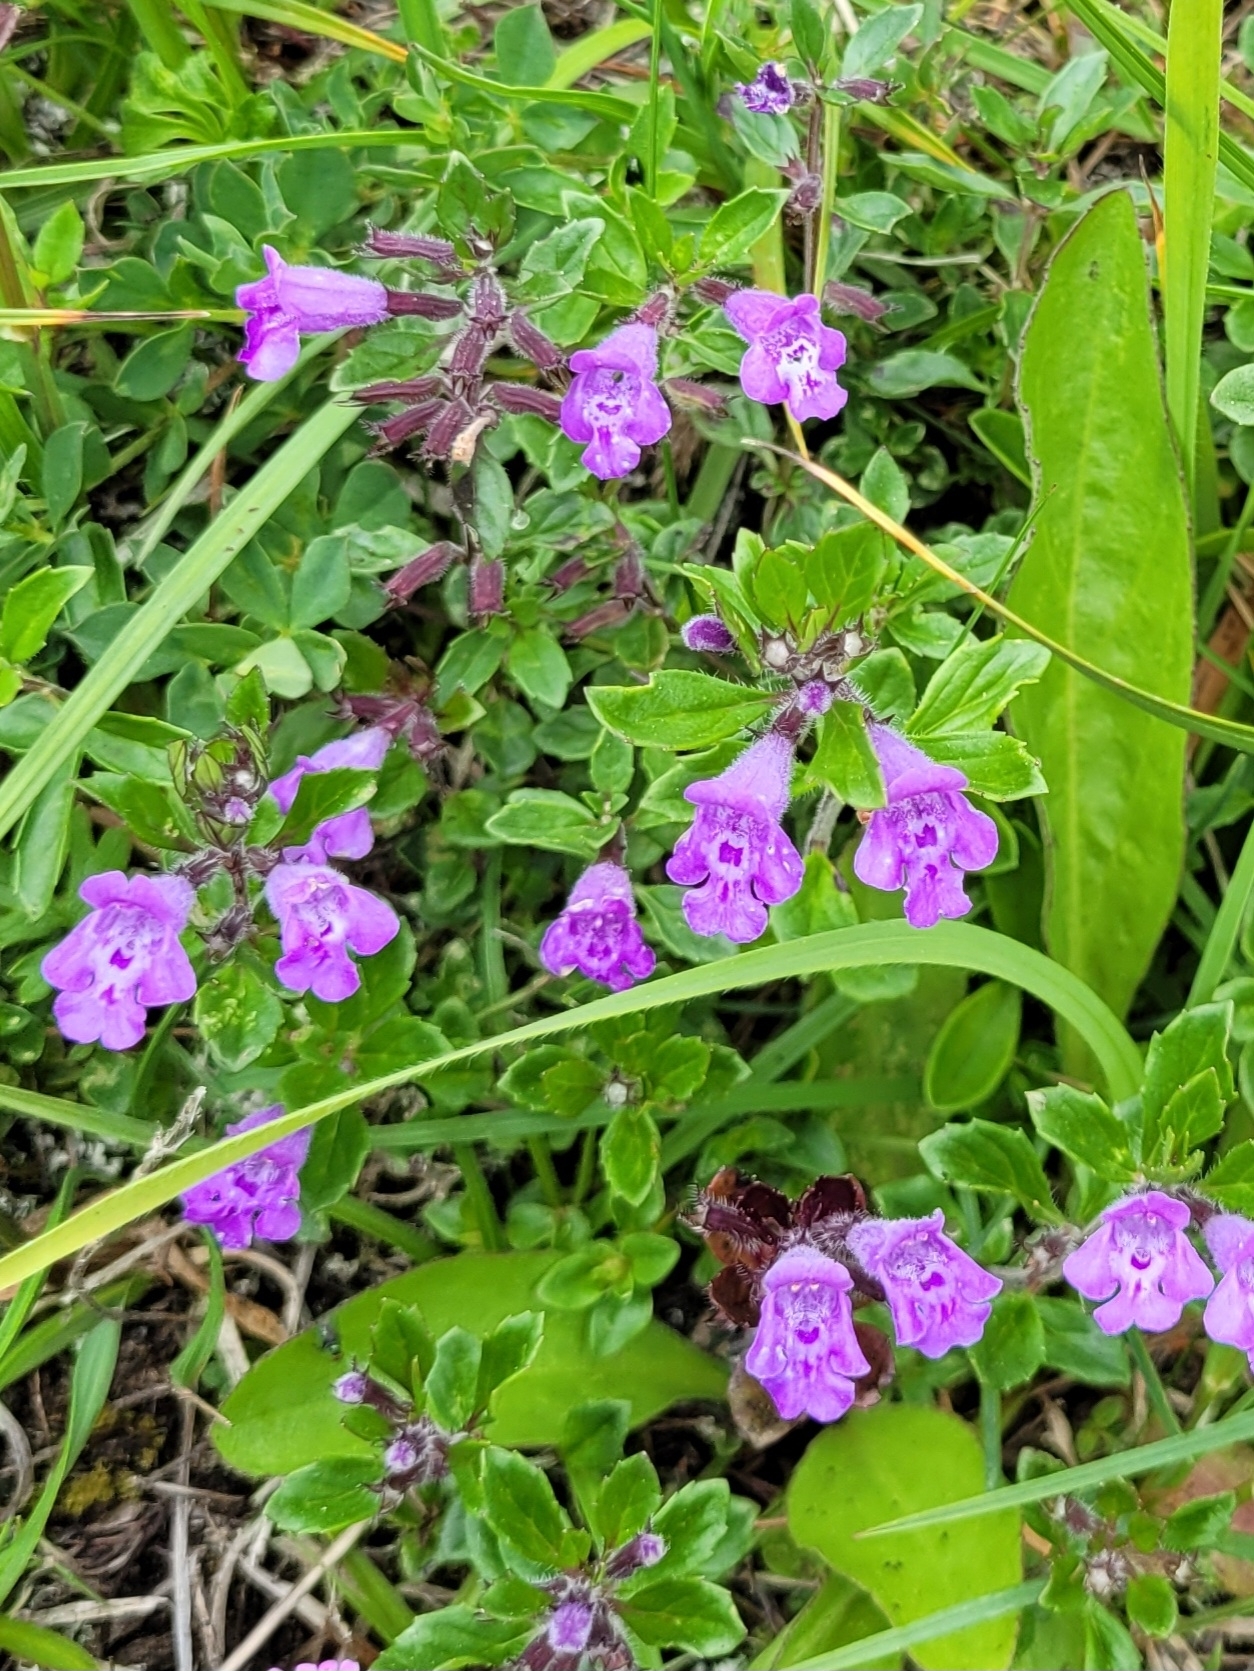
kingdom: Plantae
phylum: Tracheophyta
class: Magnoliopsida
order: Lamiales
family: Lamiaceae
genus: Clinopodium
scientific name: Clinopodium alpinum
